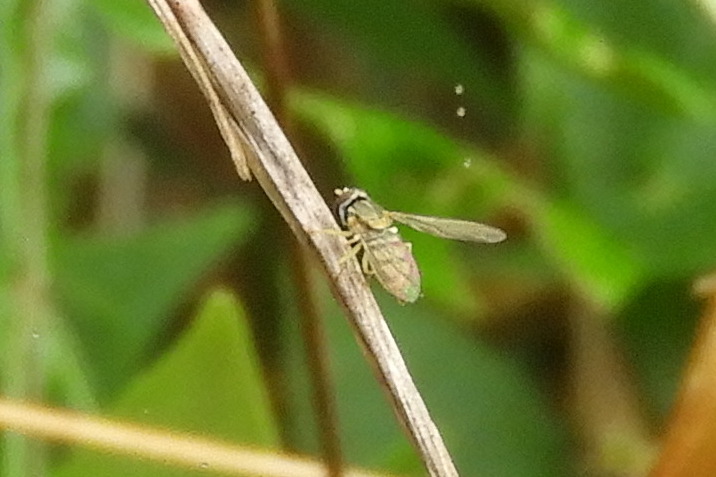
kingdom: Animalia
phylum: Arthropoda
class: Insecta
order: Diptera
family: Syrphidae
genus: Toxomerus
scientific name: Toxomerus marginatus
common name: Syrphid fly
